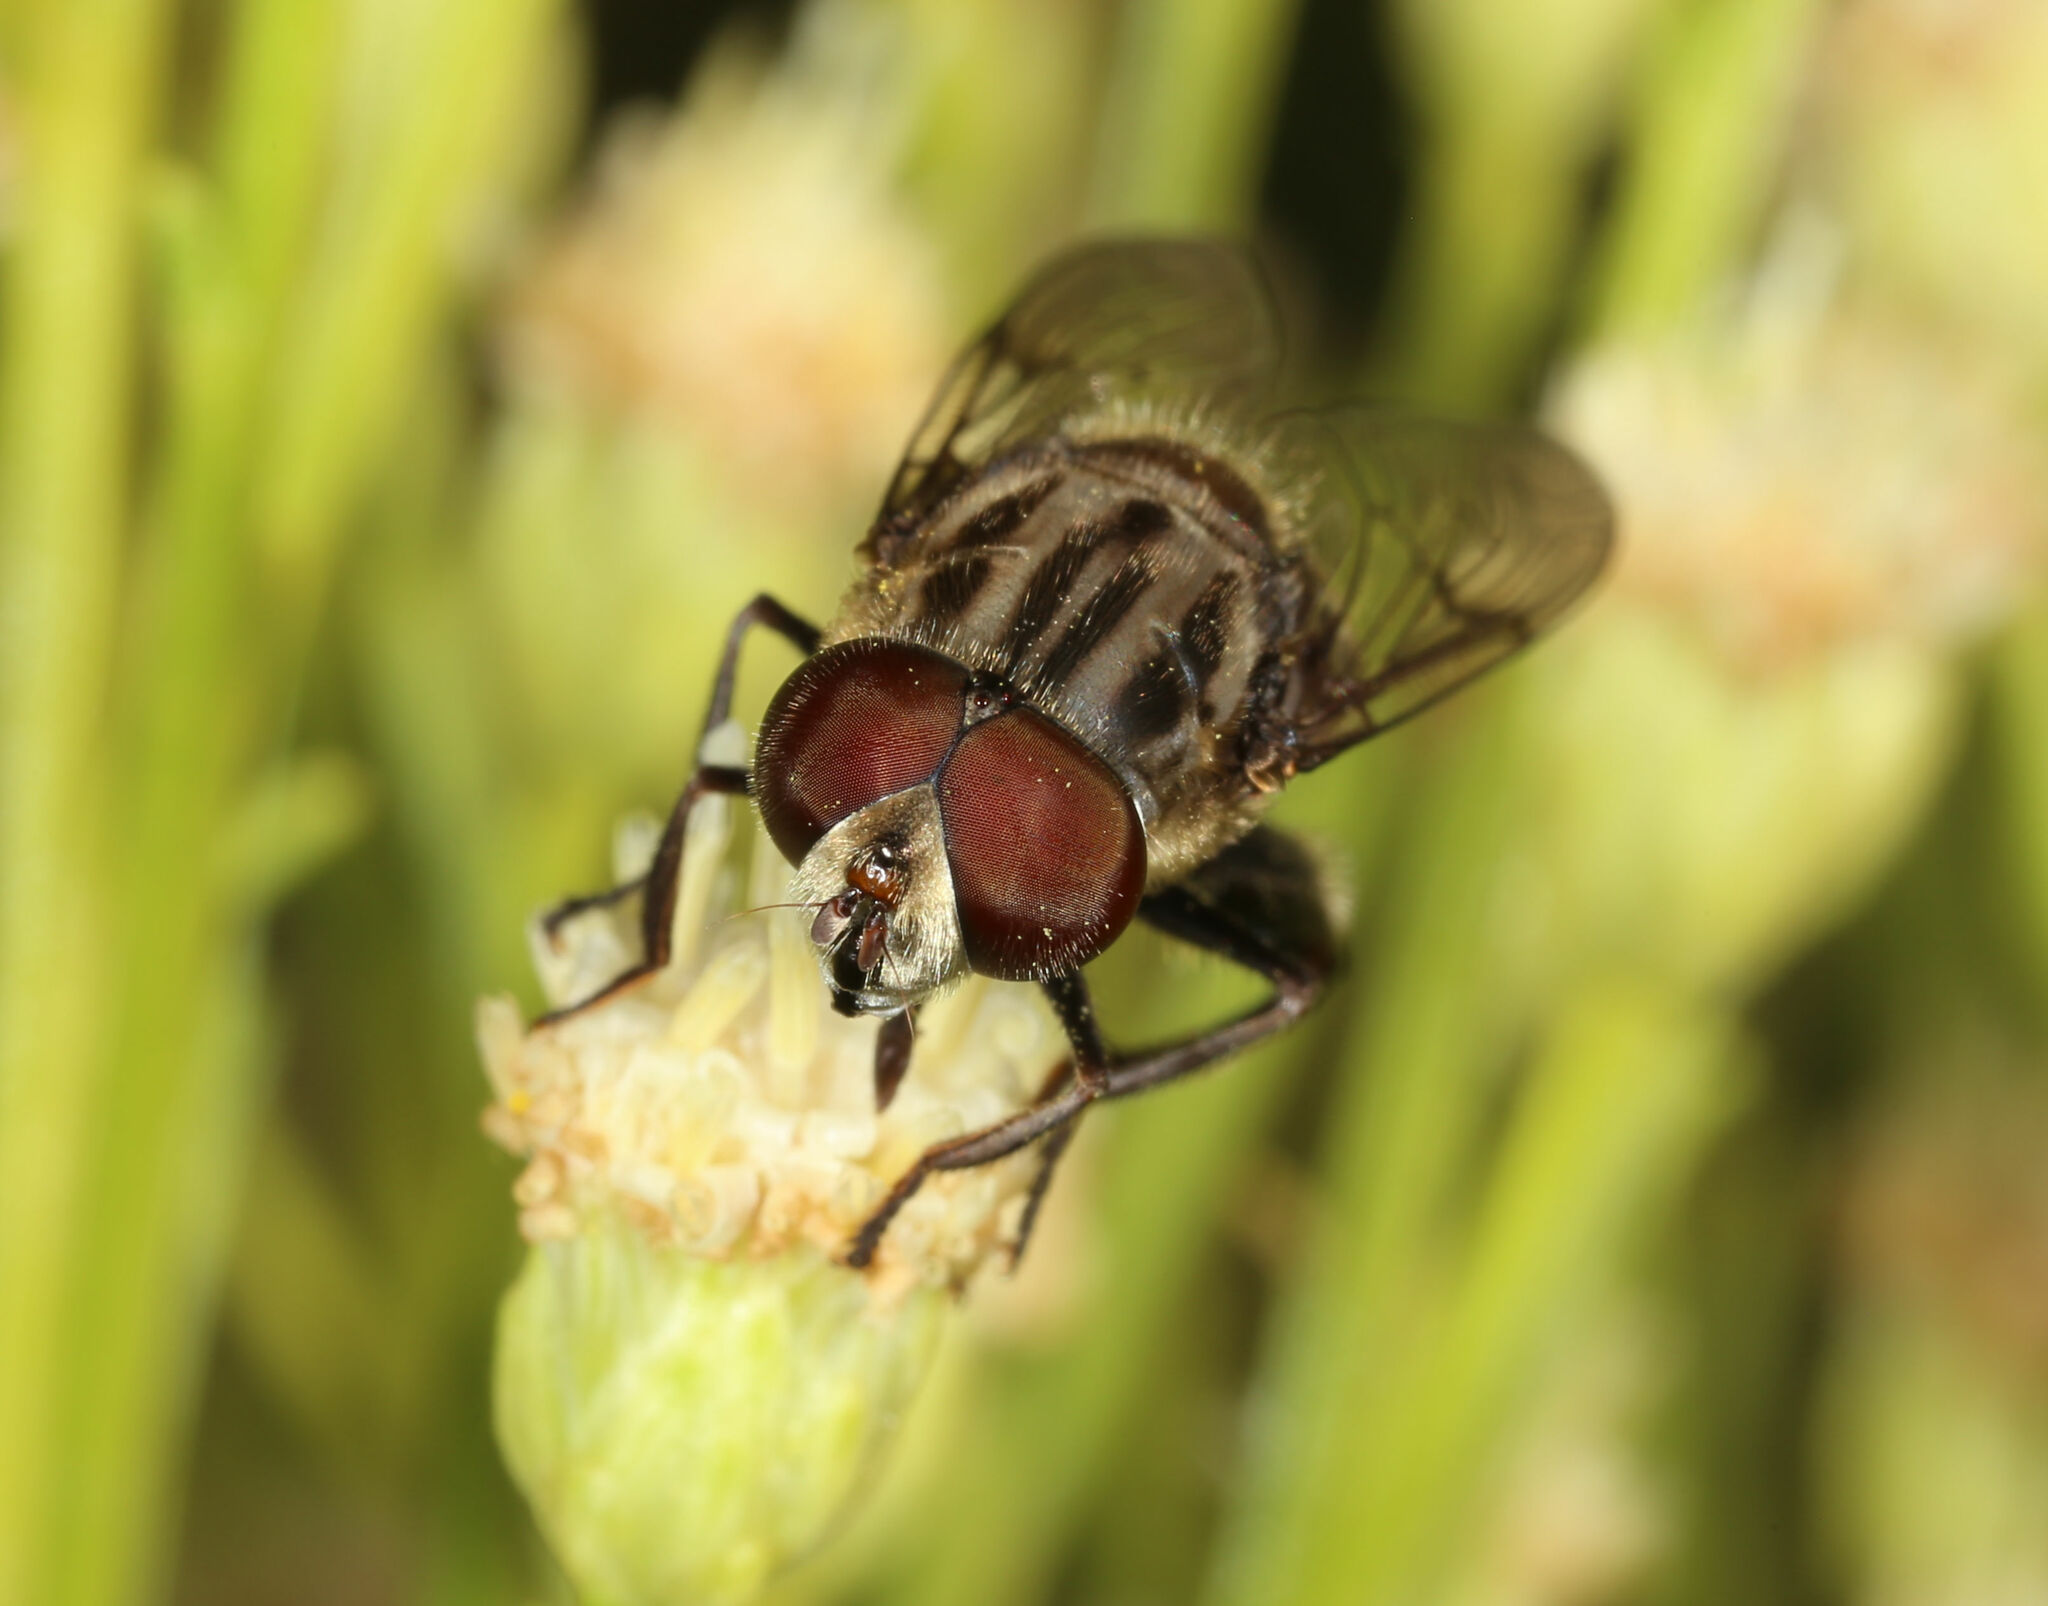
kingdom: Animalia
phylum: Arthropoda
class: Insecta
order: Diptera
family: Syrphidae
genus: Palpada
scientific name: Palpada furcata
